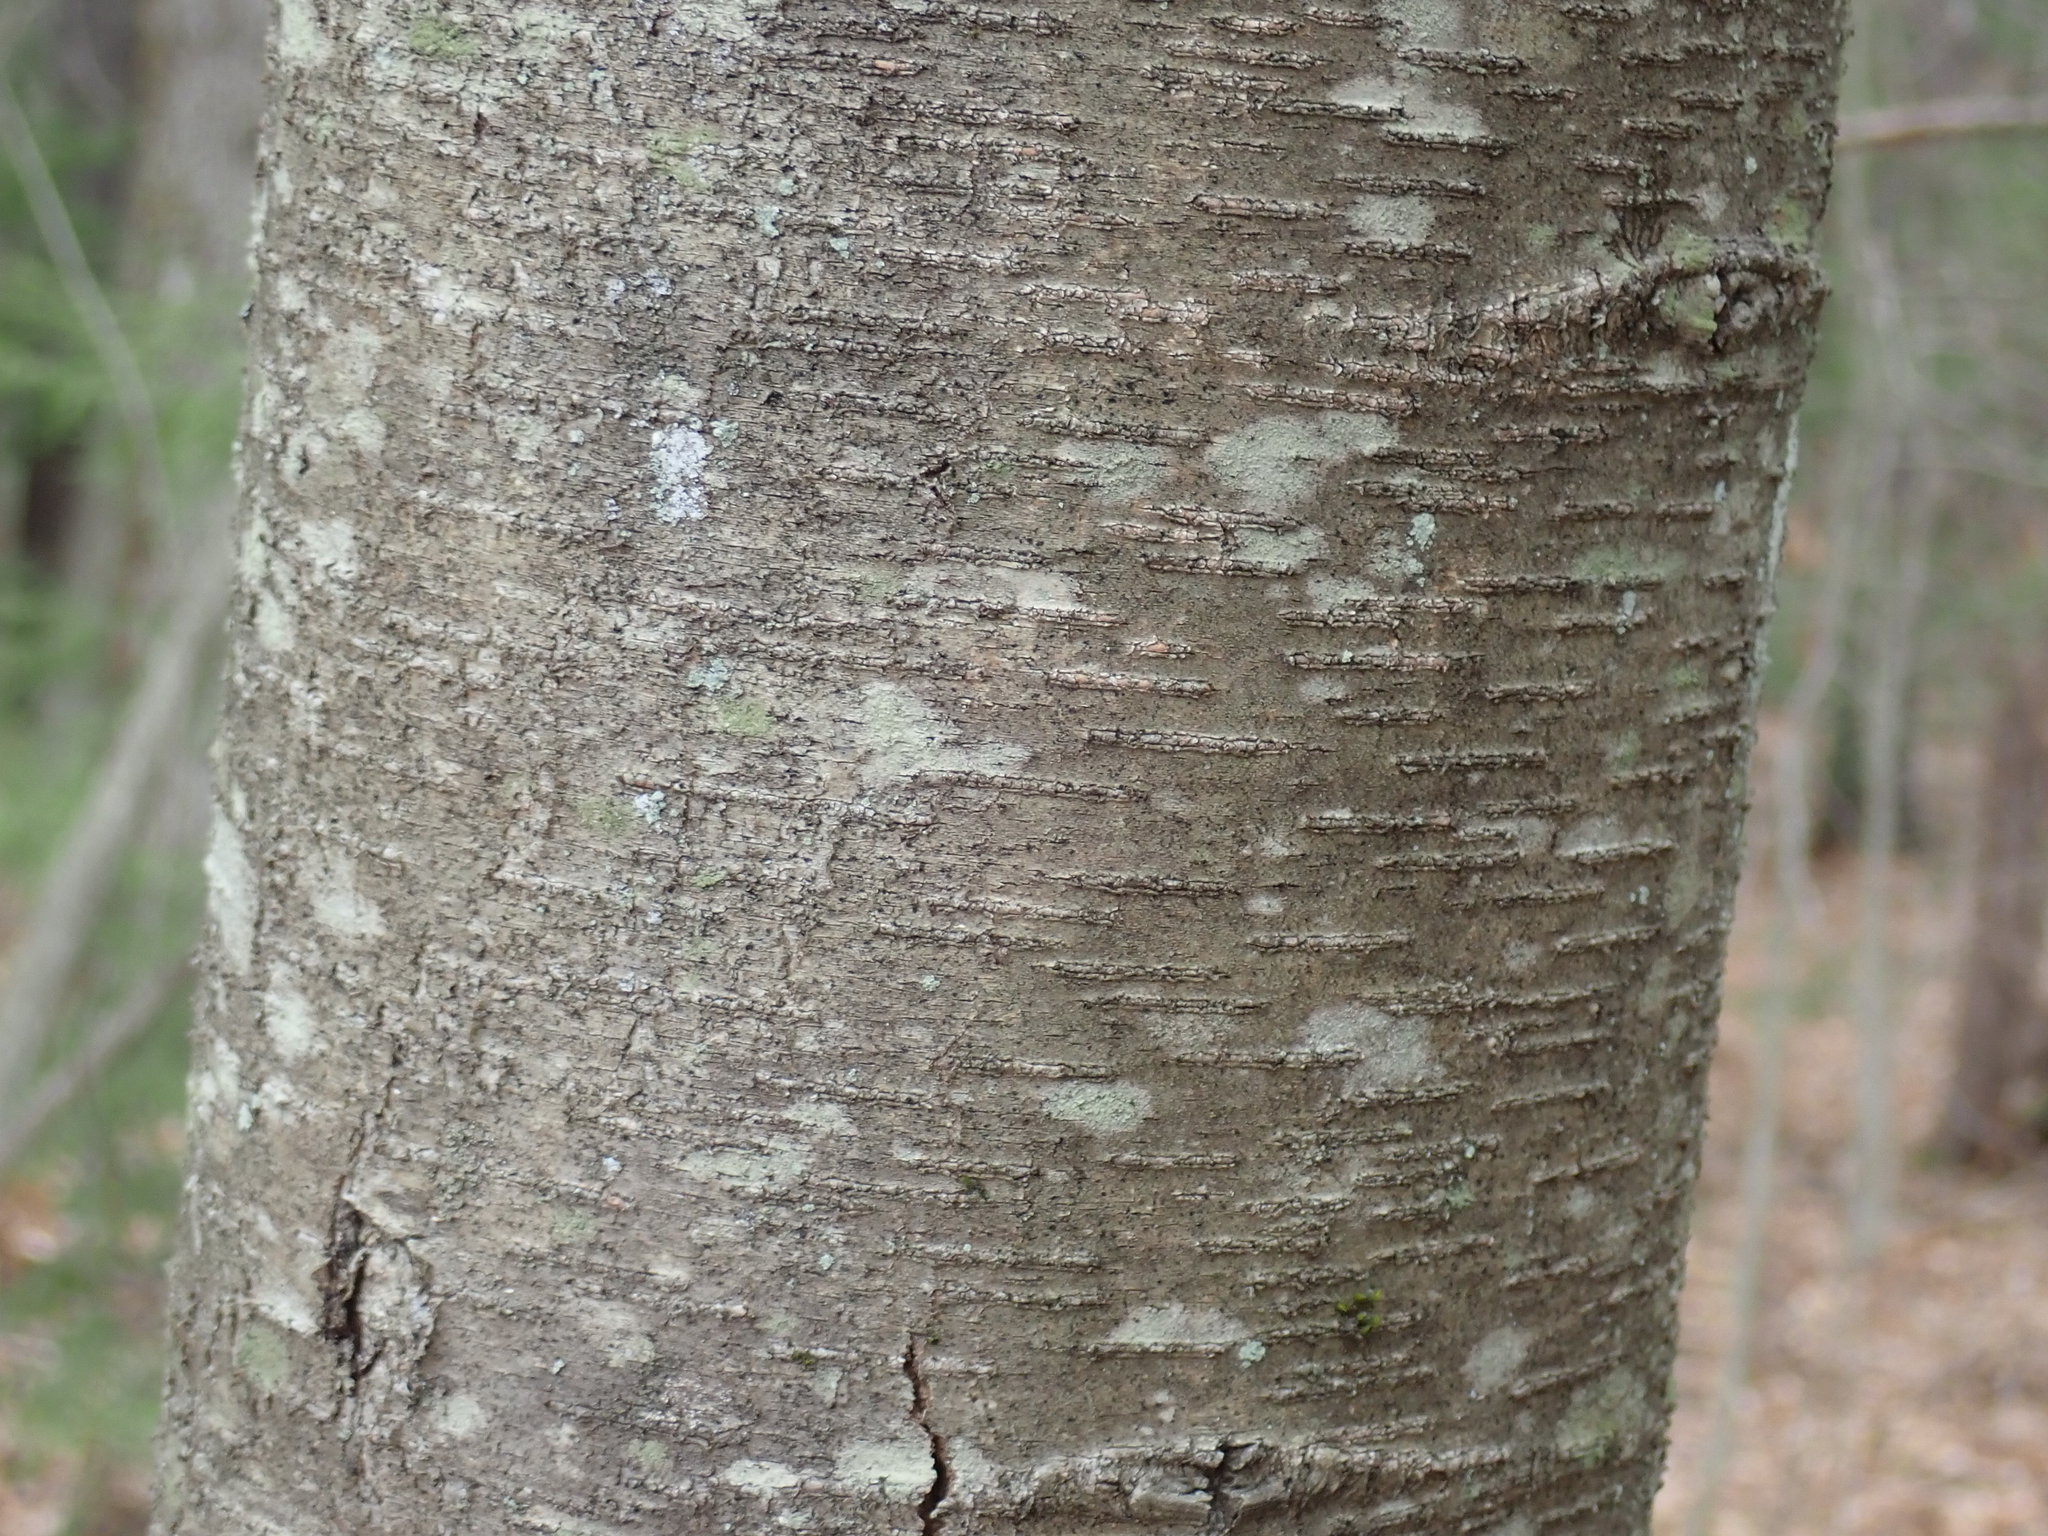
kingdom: Plantae
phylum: Tracheophyta
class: Magnoliopsida
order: Fagales
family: Betulaceae
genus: Betula
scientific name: Betula lenta
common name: Black birch
